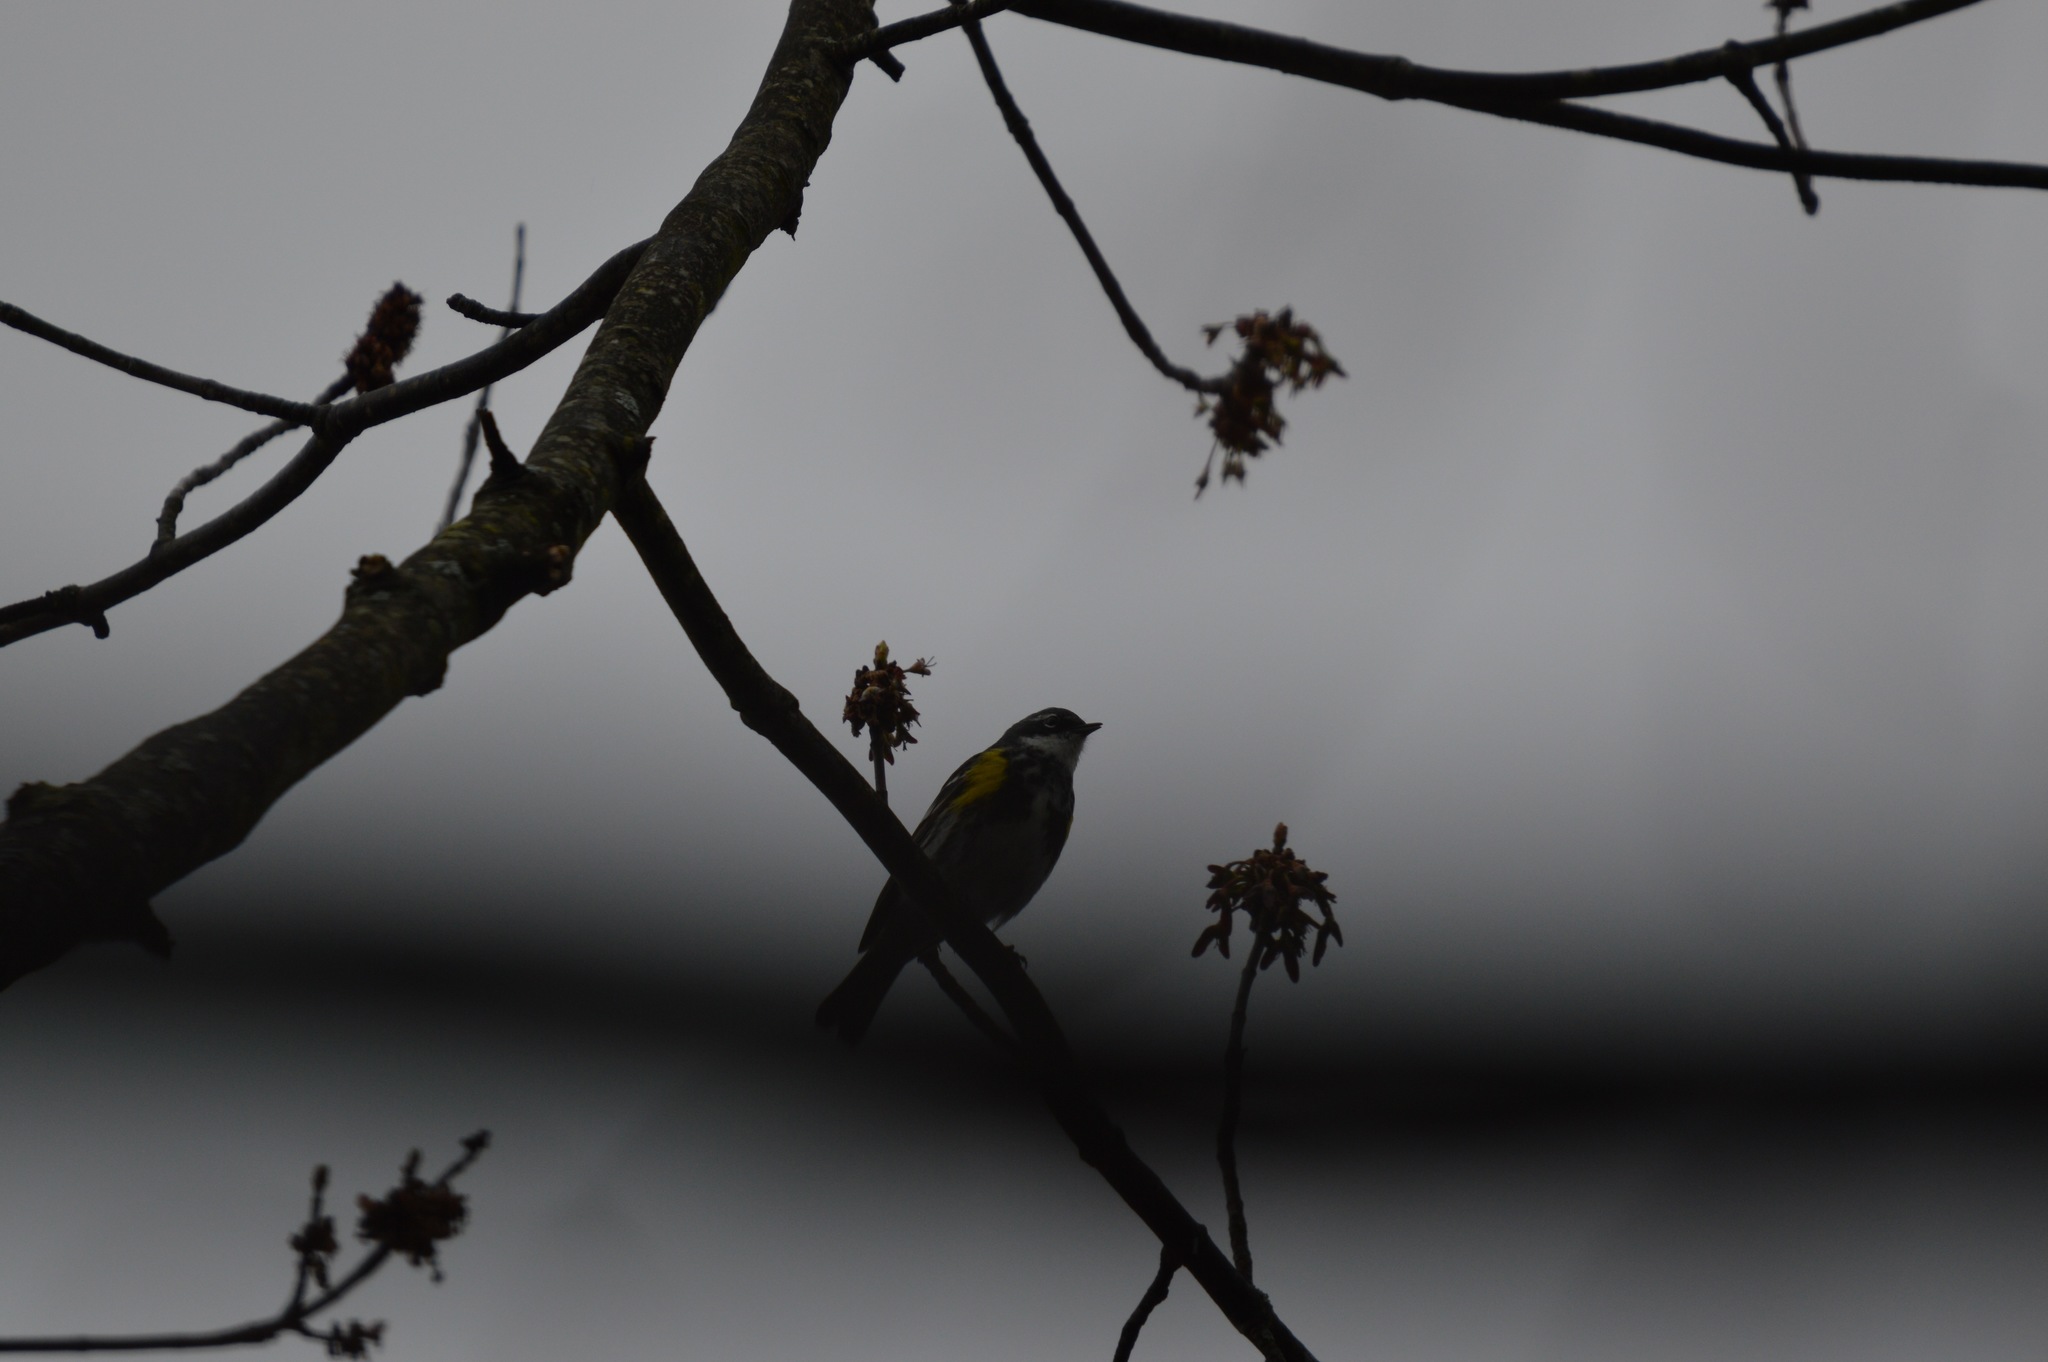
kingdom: Animalia
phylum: Chordata
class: Aves
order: Passeriformes
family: Parulidae
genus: Setophaga
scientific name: Setophaga coronata
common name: Myrtle warbler
